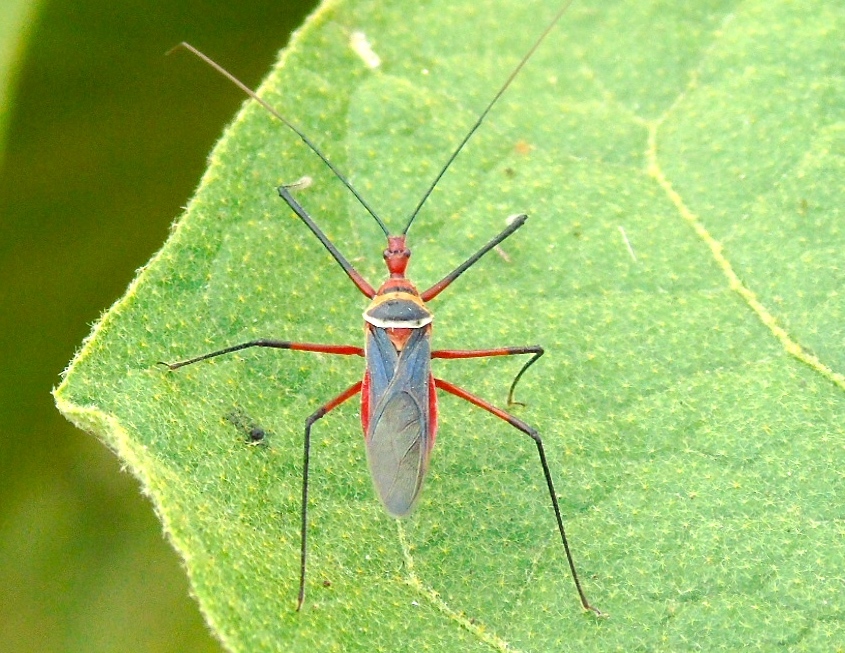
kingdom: Animalia
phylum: Arthropoda
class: Insecta
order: Hemiptera
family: Reduviidae
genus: Zelus
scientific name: Zelus grassans
